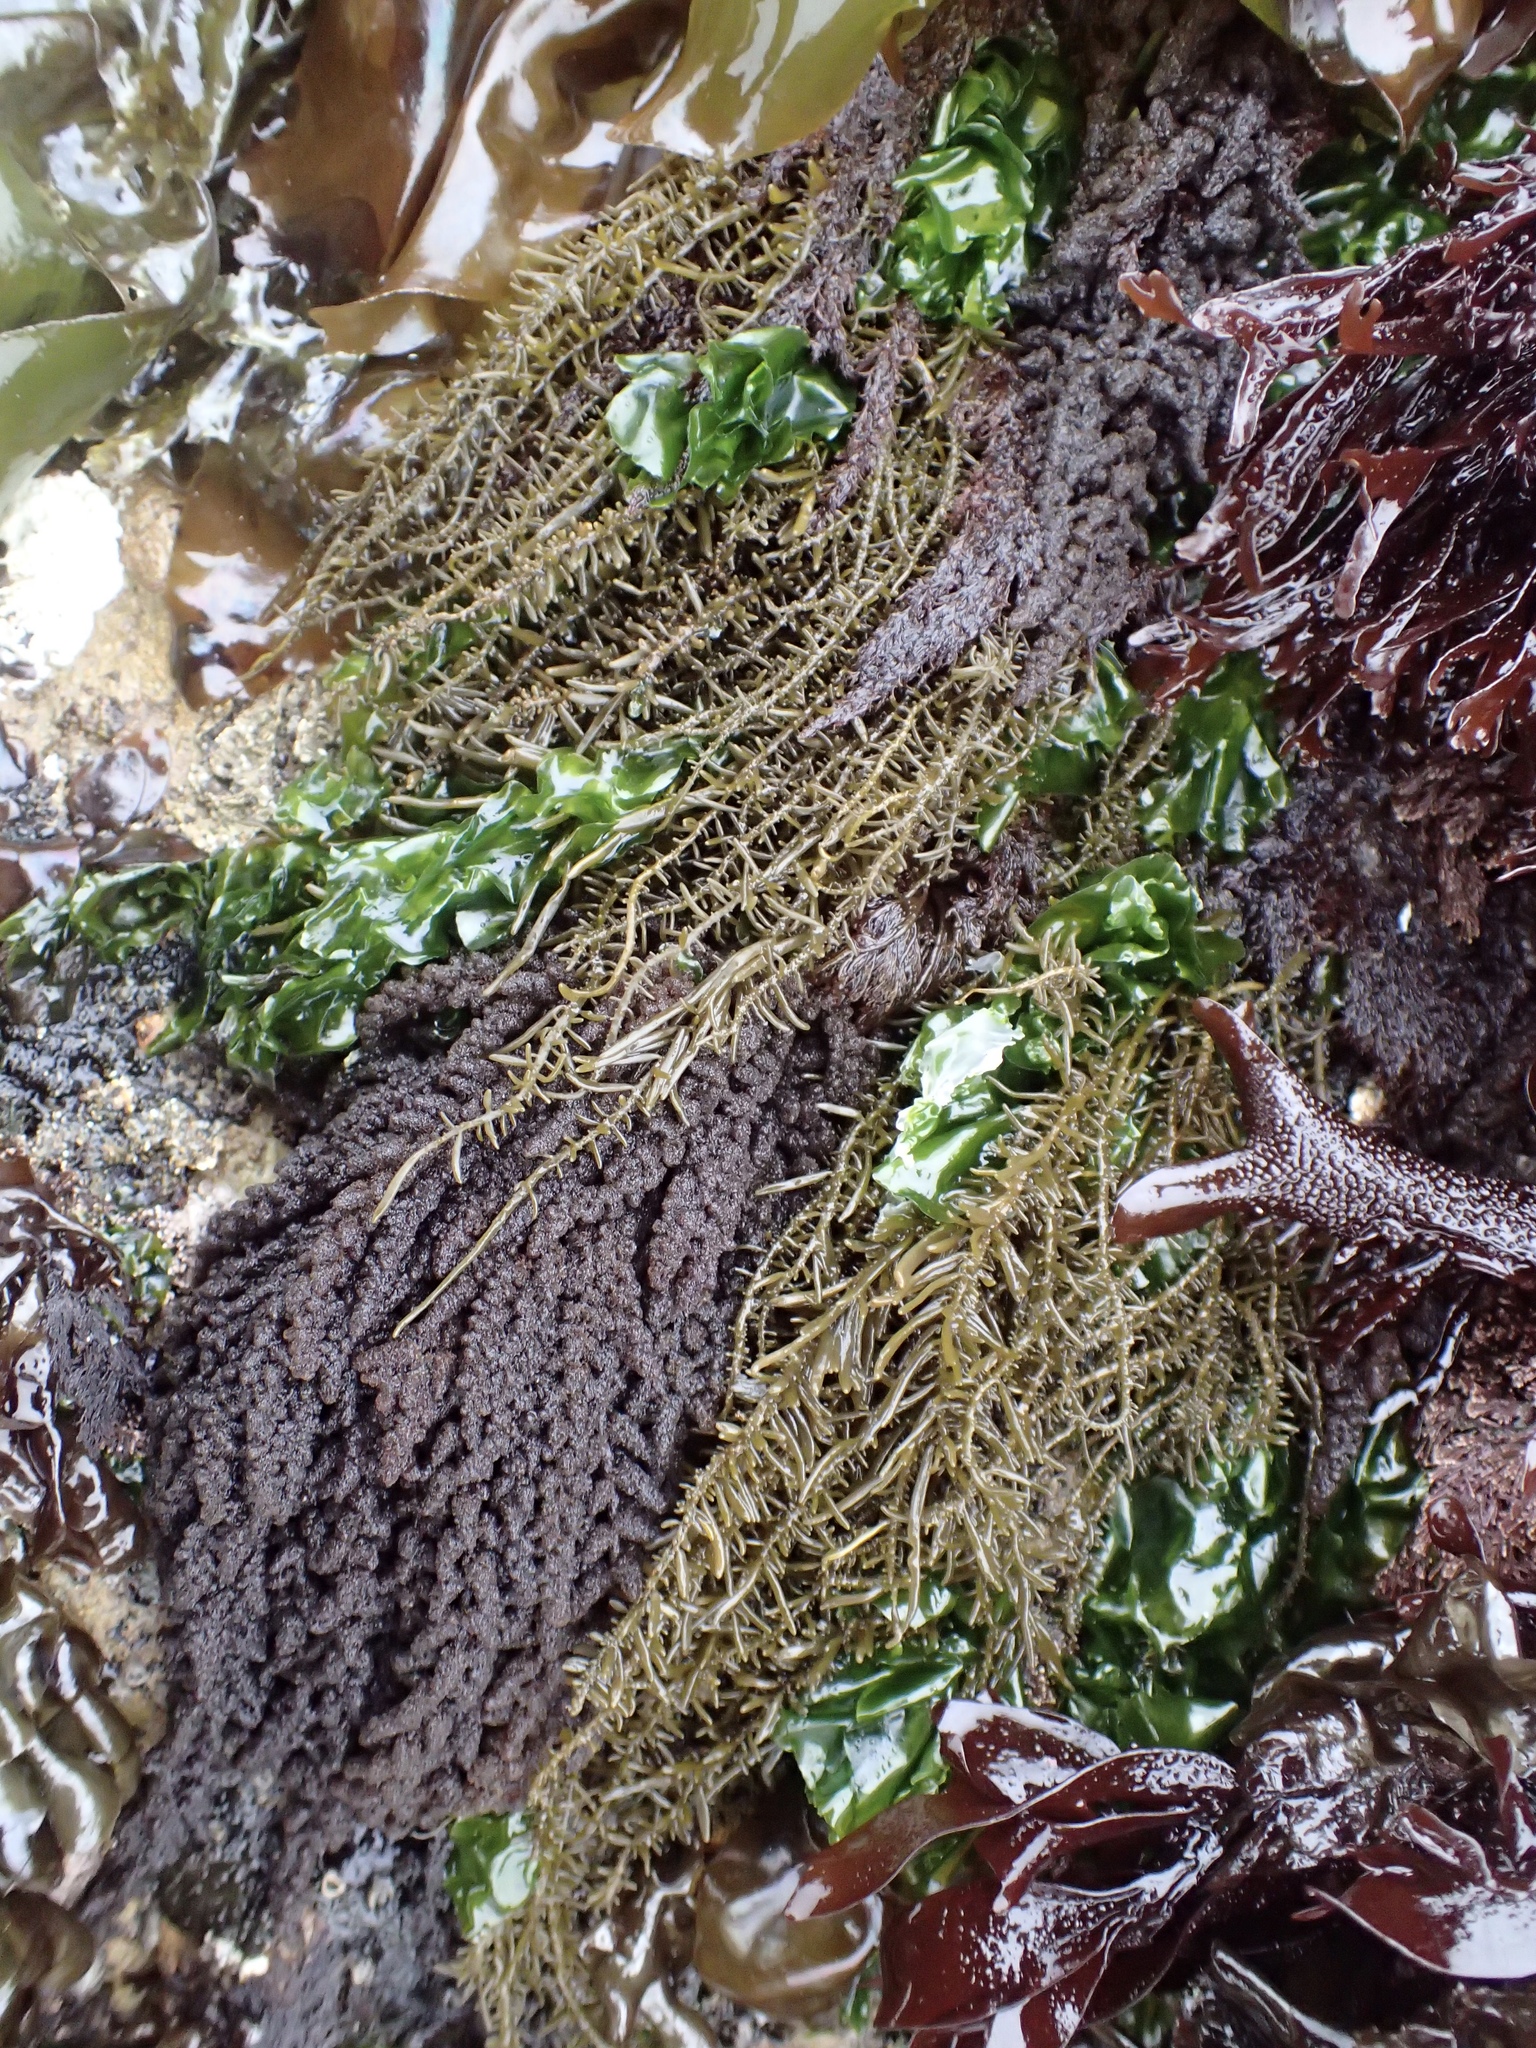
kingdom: Chromista
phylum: Ochrophyta
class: Phaeophyceae
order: Scytosiphonales
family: Scytosiphonaceae
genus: Analipus
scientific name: Analipus japonicus
